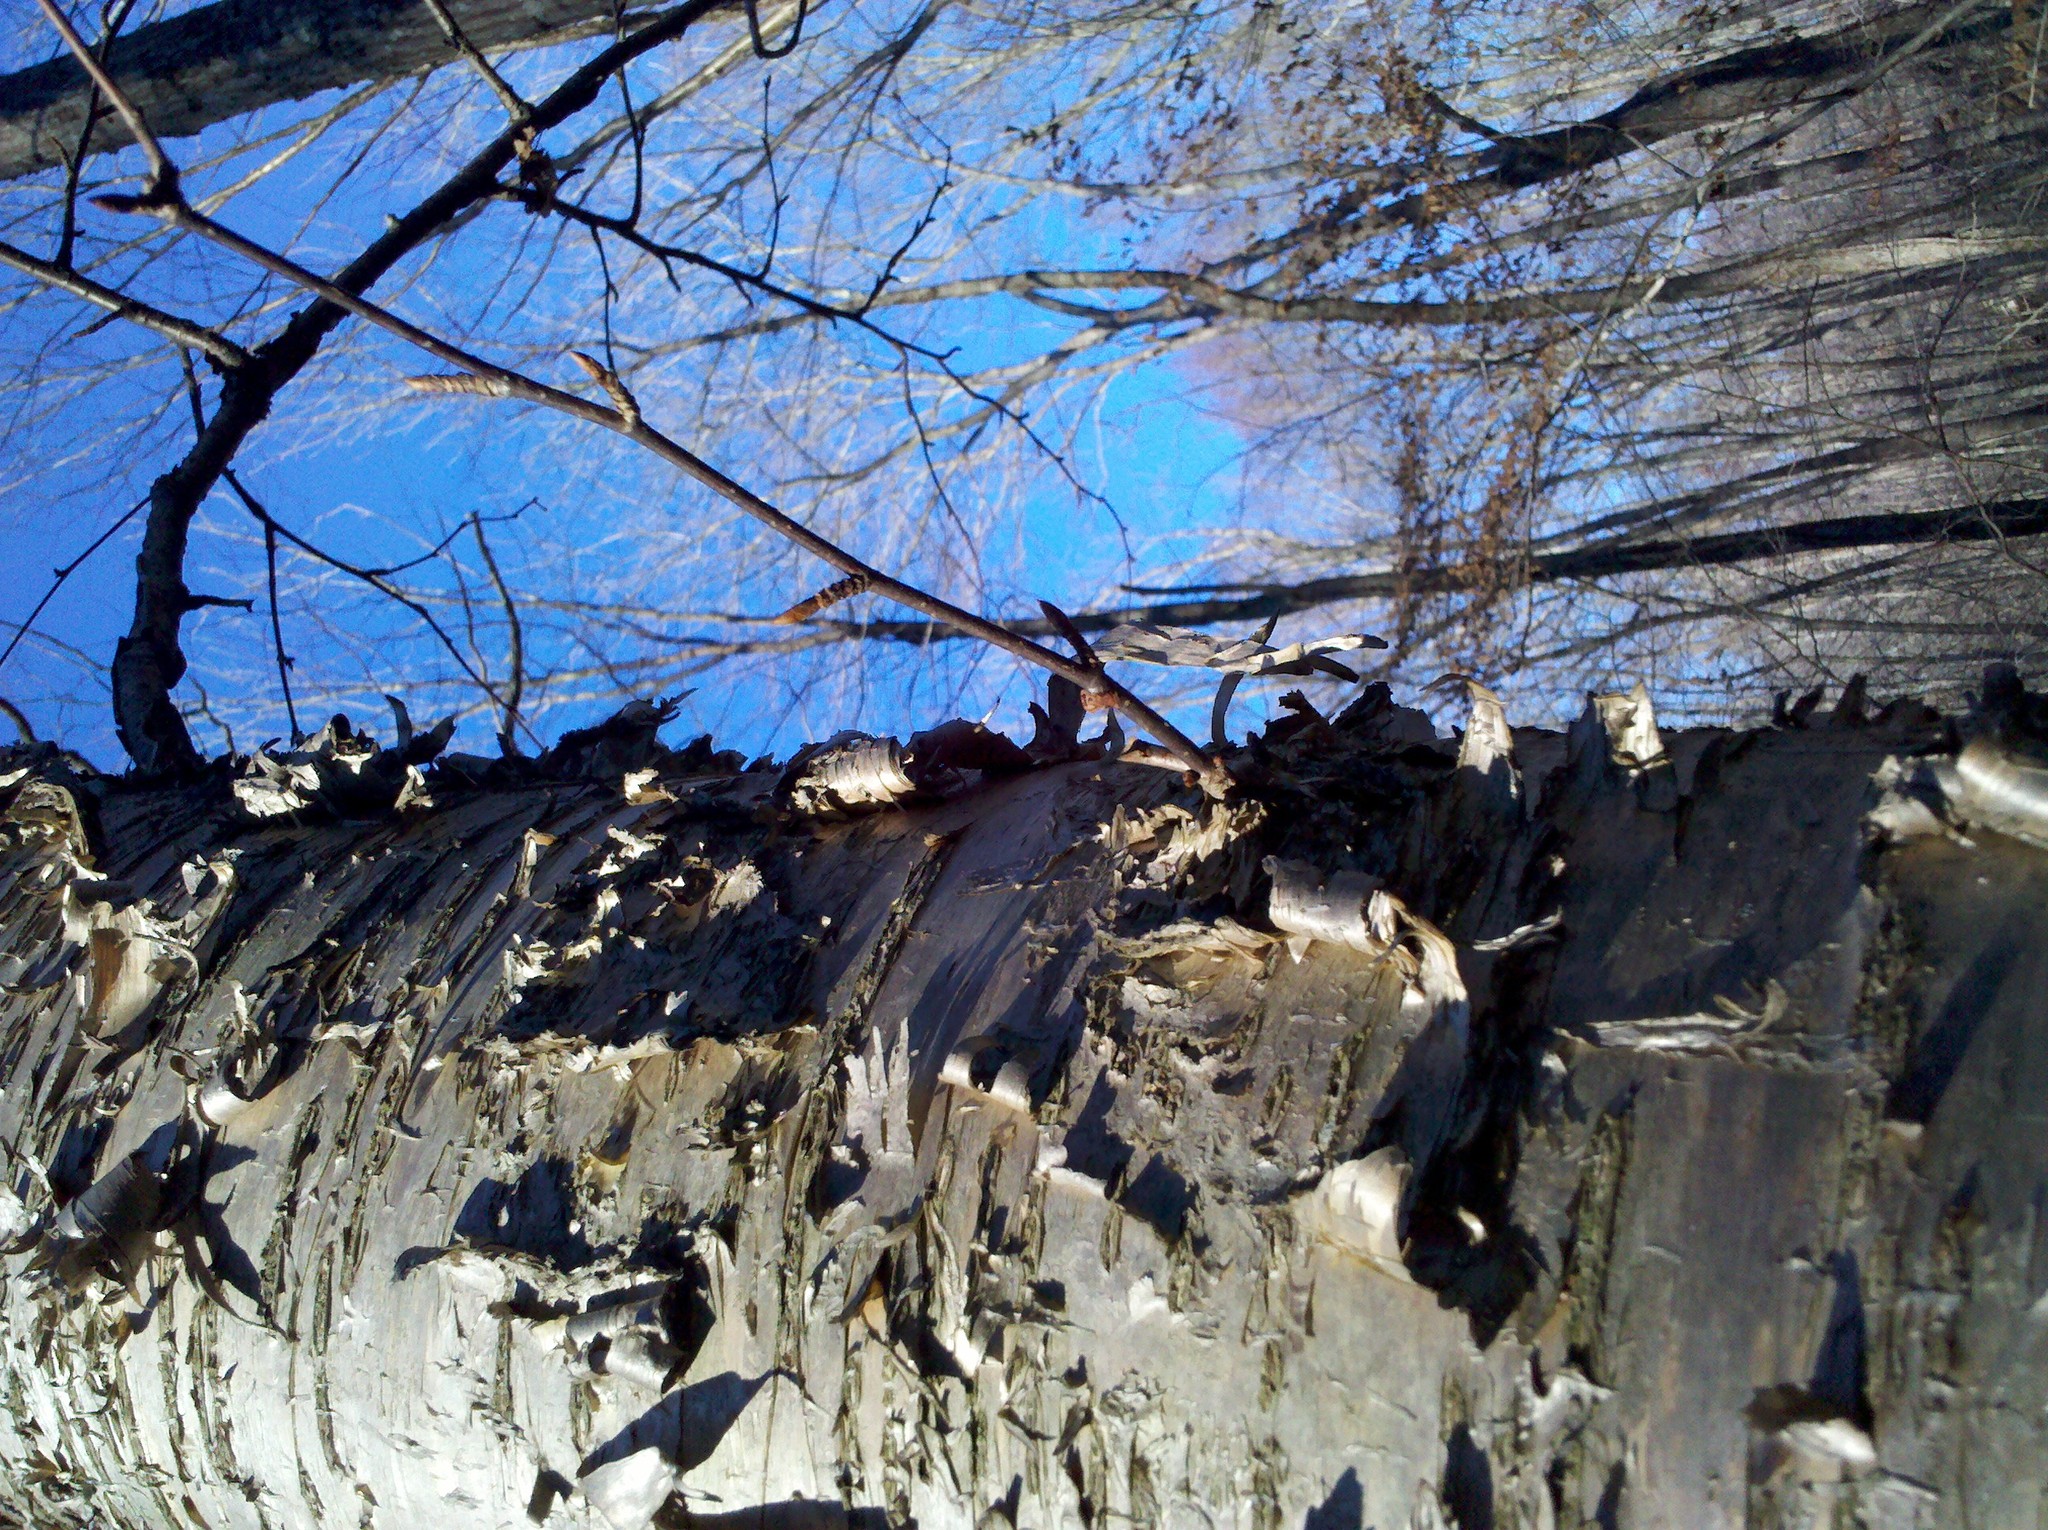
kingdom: Plantae
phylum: Tracheophyta
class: Magnoliopsida
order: Fagales
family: Betulaceae
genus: Betula
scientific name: Betula alleghaniensis
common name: Yellow birch
